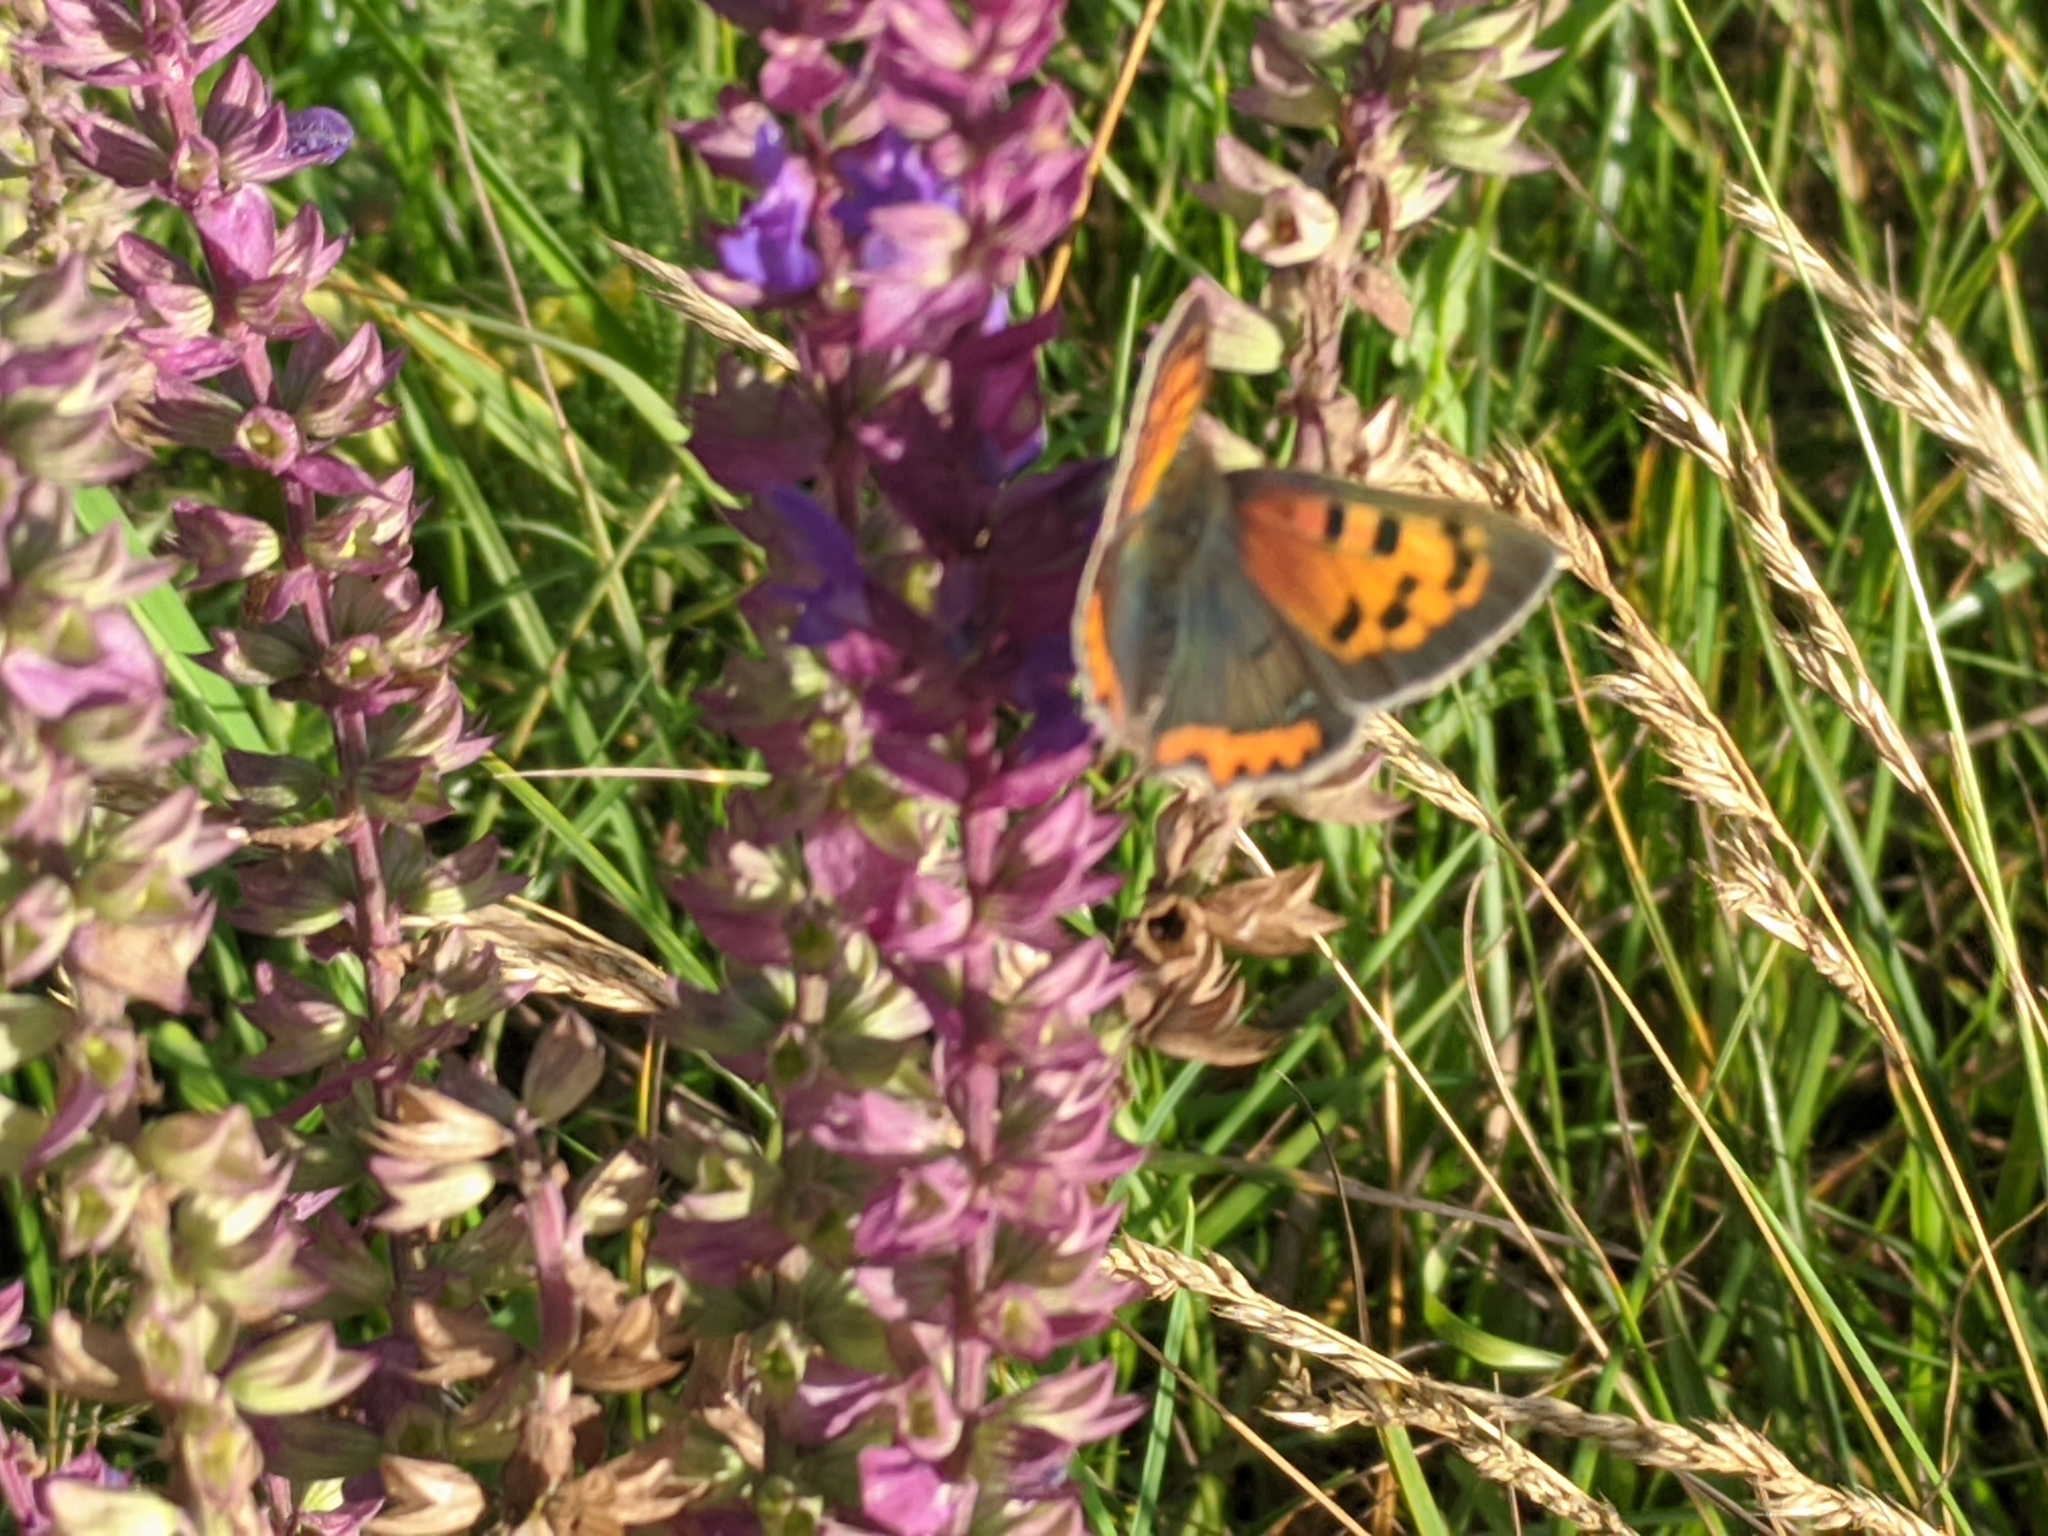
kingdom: Animalia
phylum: Arthropoda
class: Insecta
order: Lepidoptera
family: Lycaenidae
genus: Lycaena
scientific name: Lycaena phlaeas
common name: Small copper
